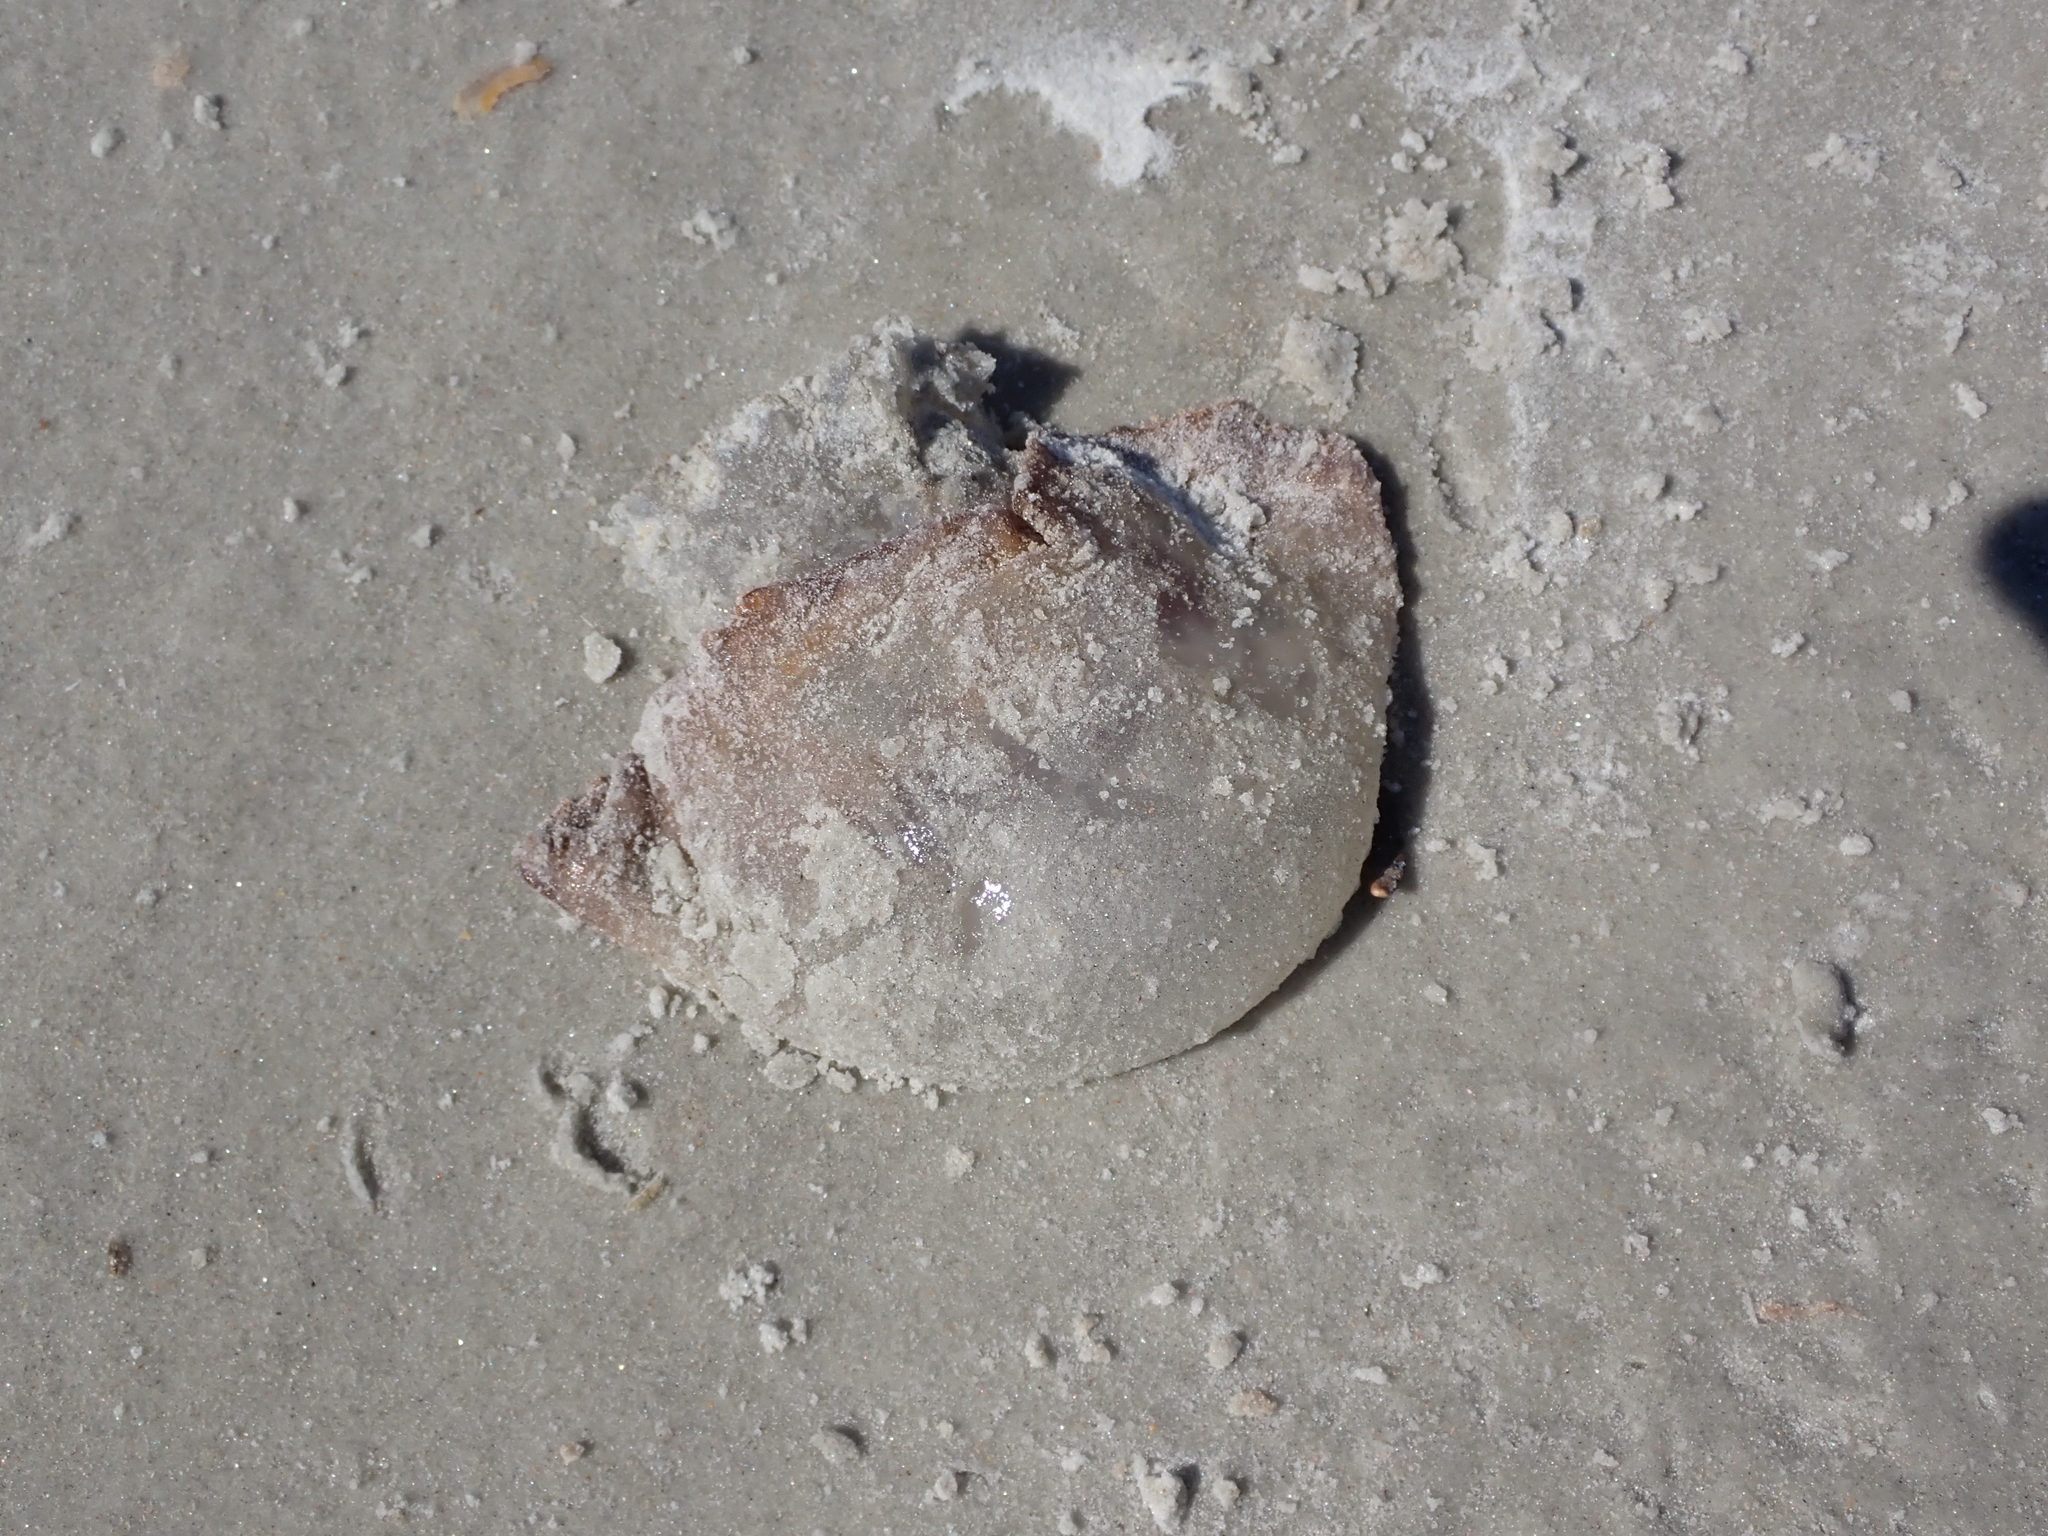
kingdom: Animalia
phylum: Cnidaria
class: Scyphozoa
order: Rhizostomeae
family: Stomolophidae
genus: Stomolophus
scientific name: Stomolophus meleagris
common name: Cabbagehead
